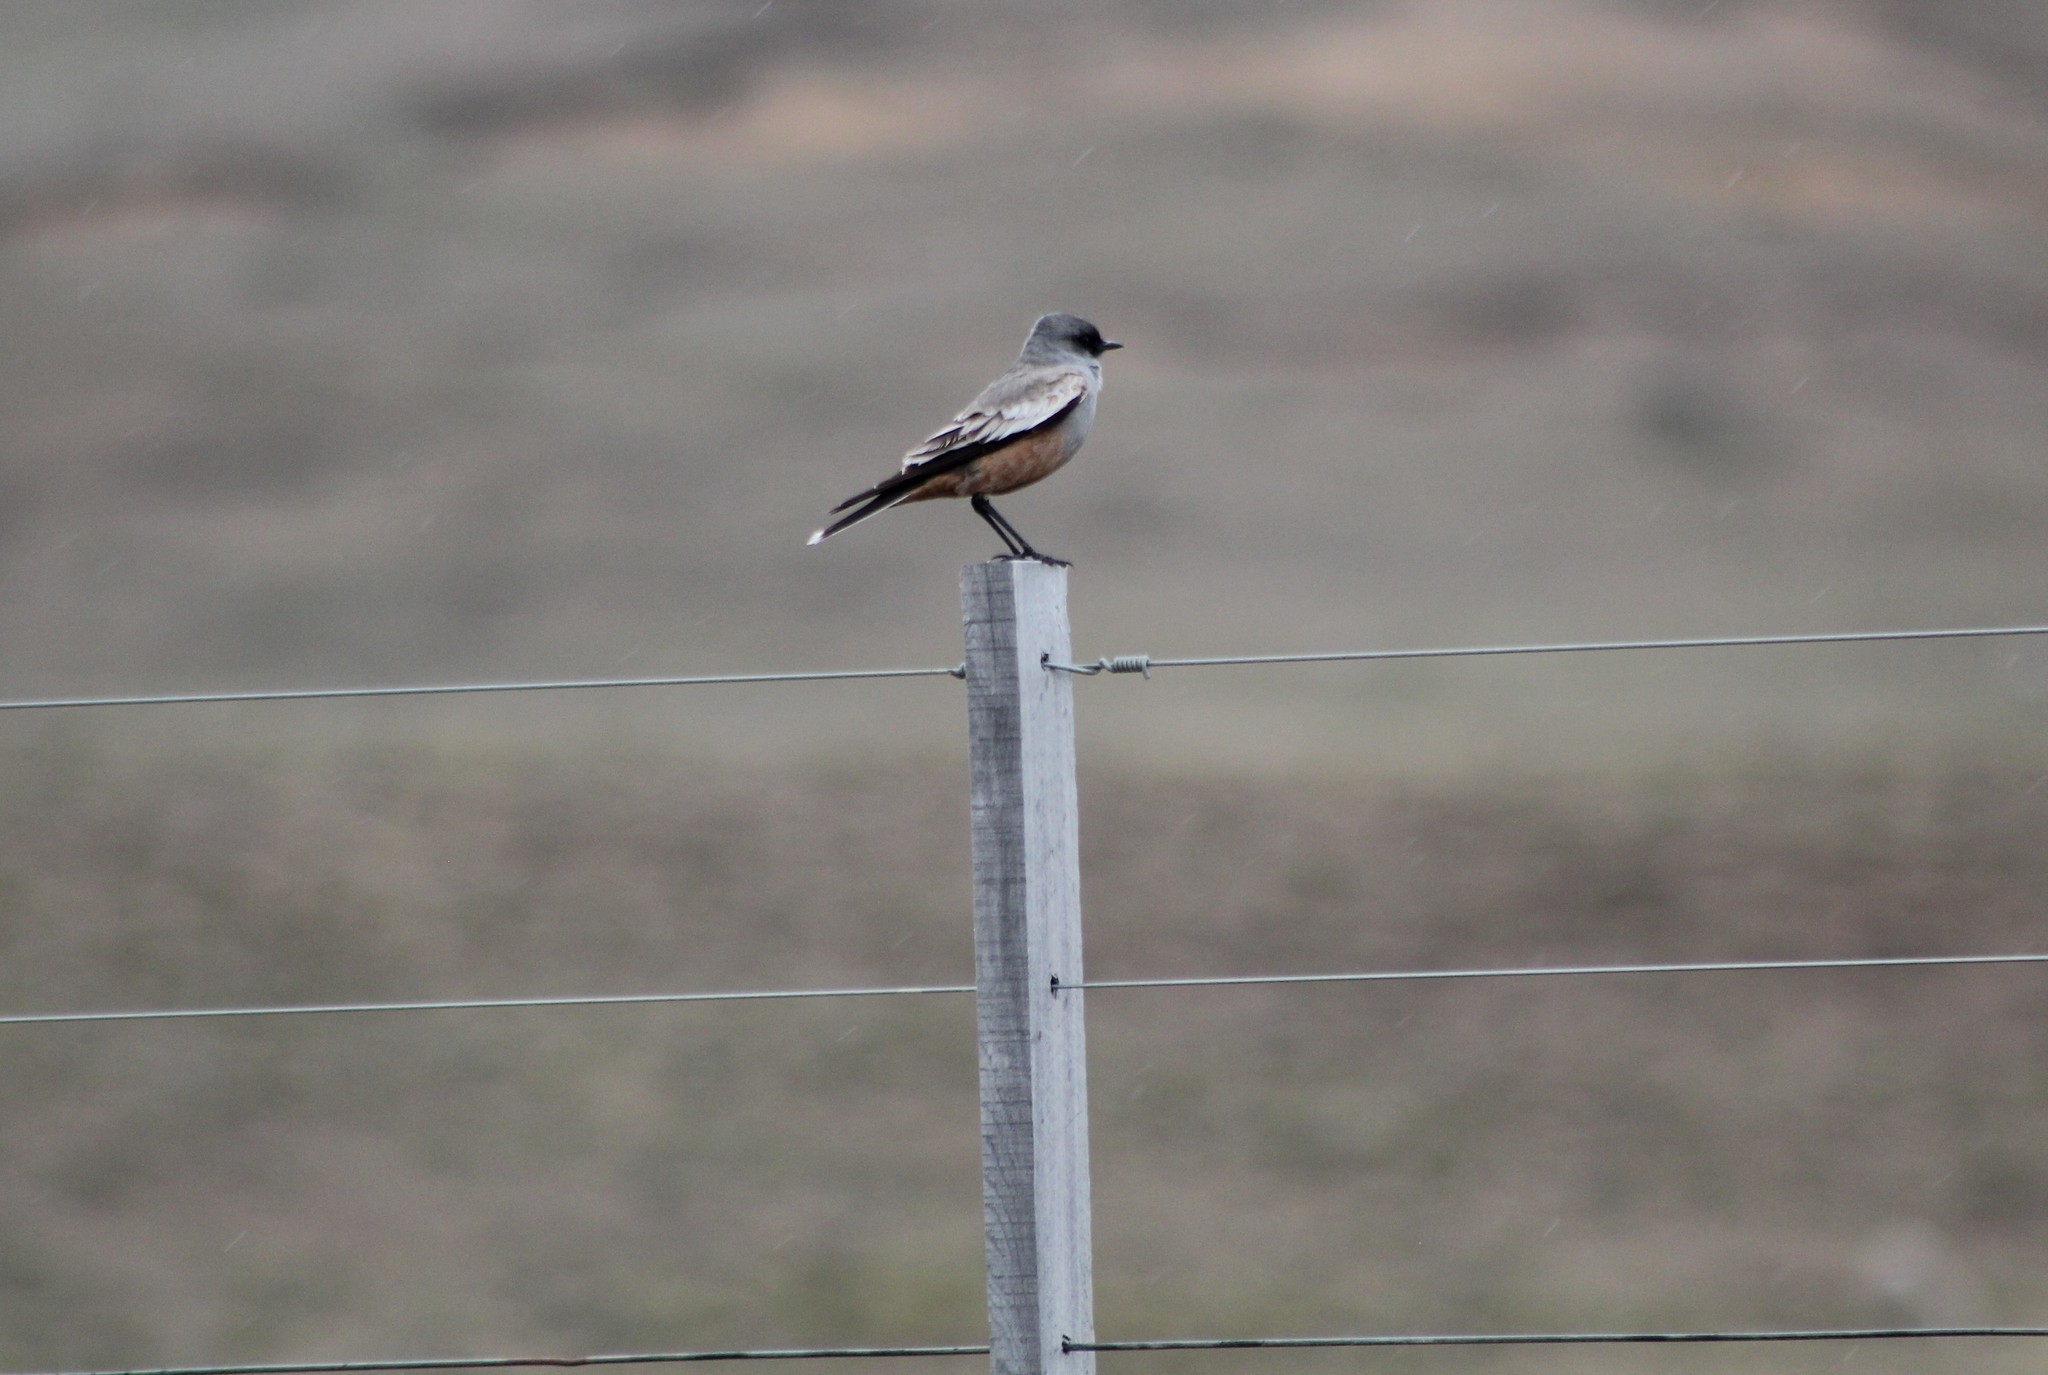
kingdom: Animalia
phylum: Chordata
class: Aves
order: Passeriformes
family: Tyrannidae
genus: Neoxolmis
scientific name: Neoxolmis rufiventris
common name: Chocolate-vented tyrant
